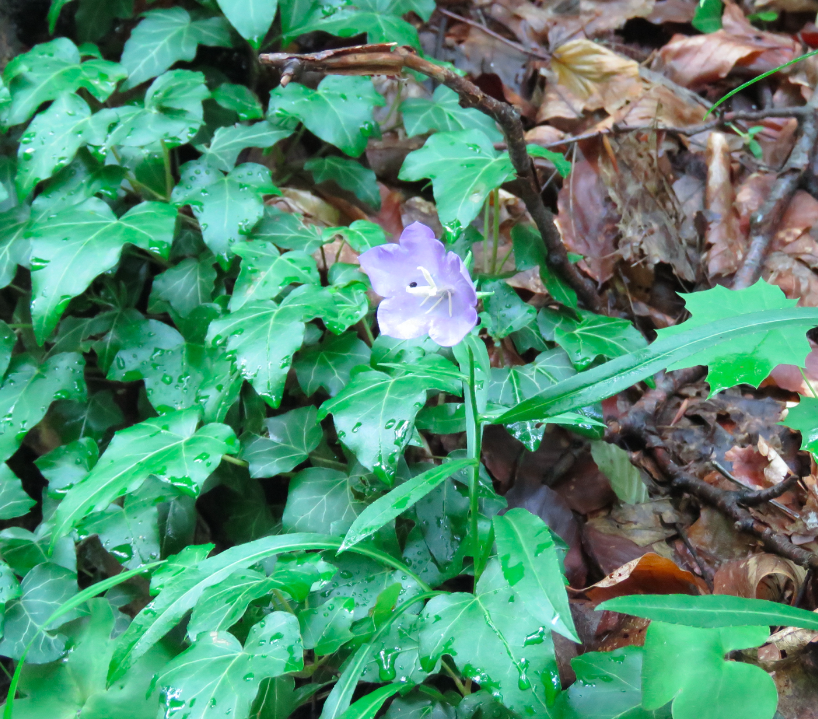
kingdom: Plantae
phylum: Tracheophyta
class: Magnoliopsida
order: Asterales
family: Campanulaceae
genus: Campanula
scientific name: Campanula persicifolia
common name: Peach-leaved bellflower
